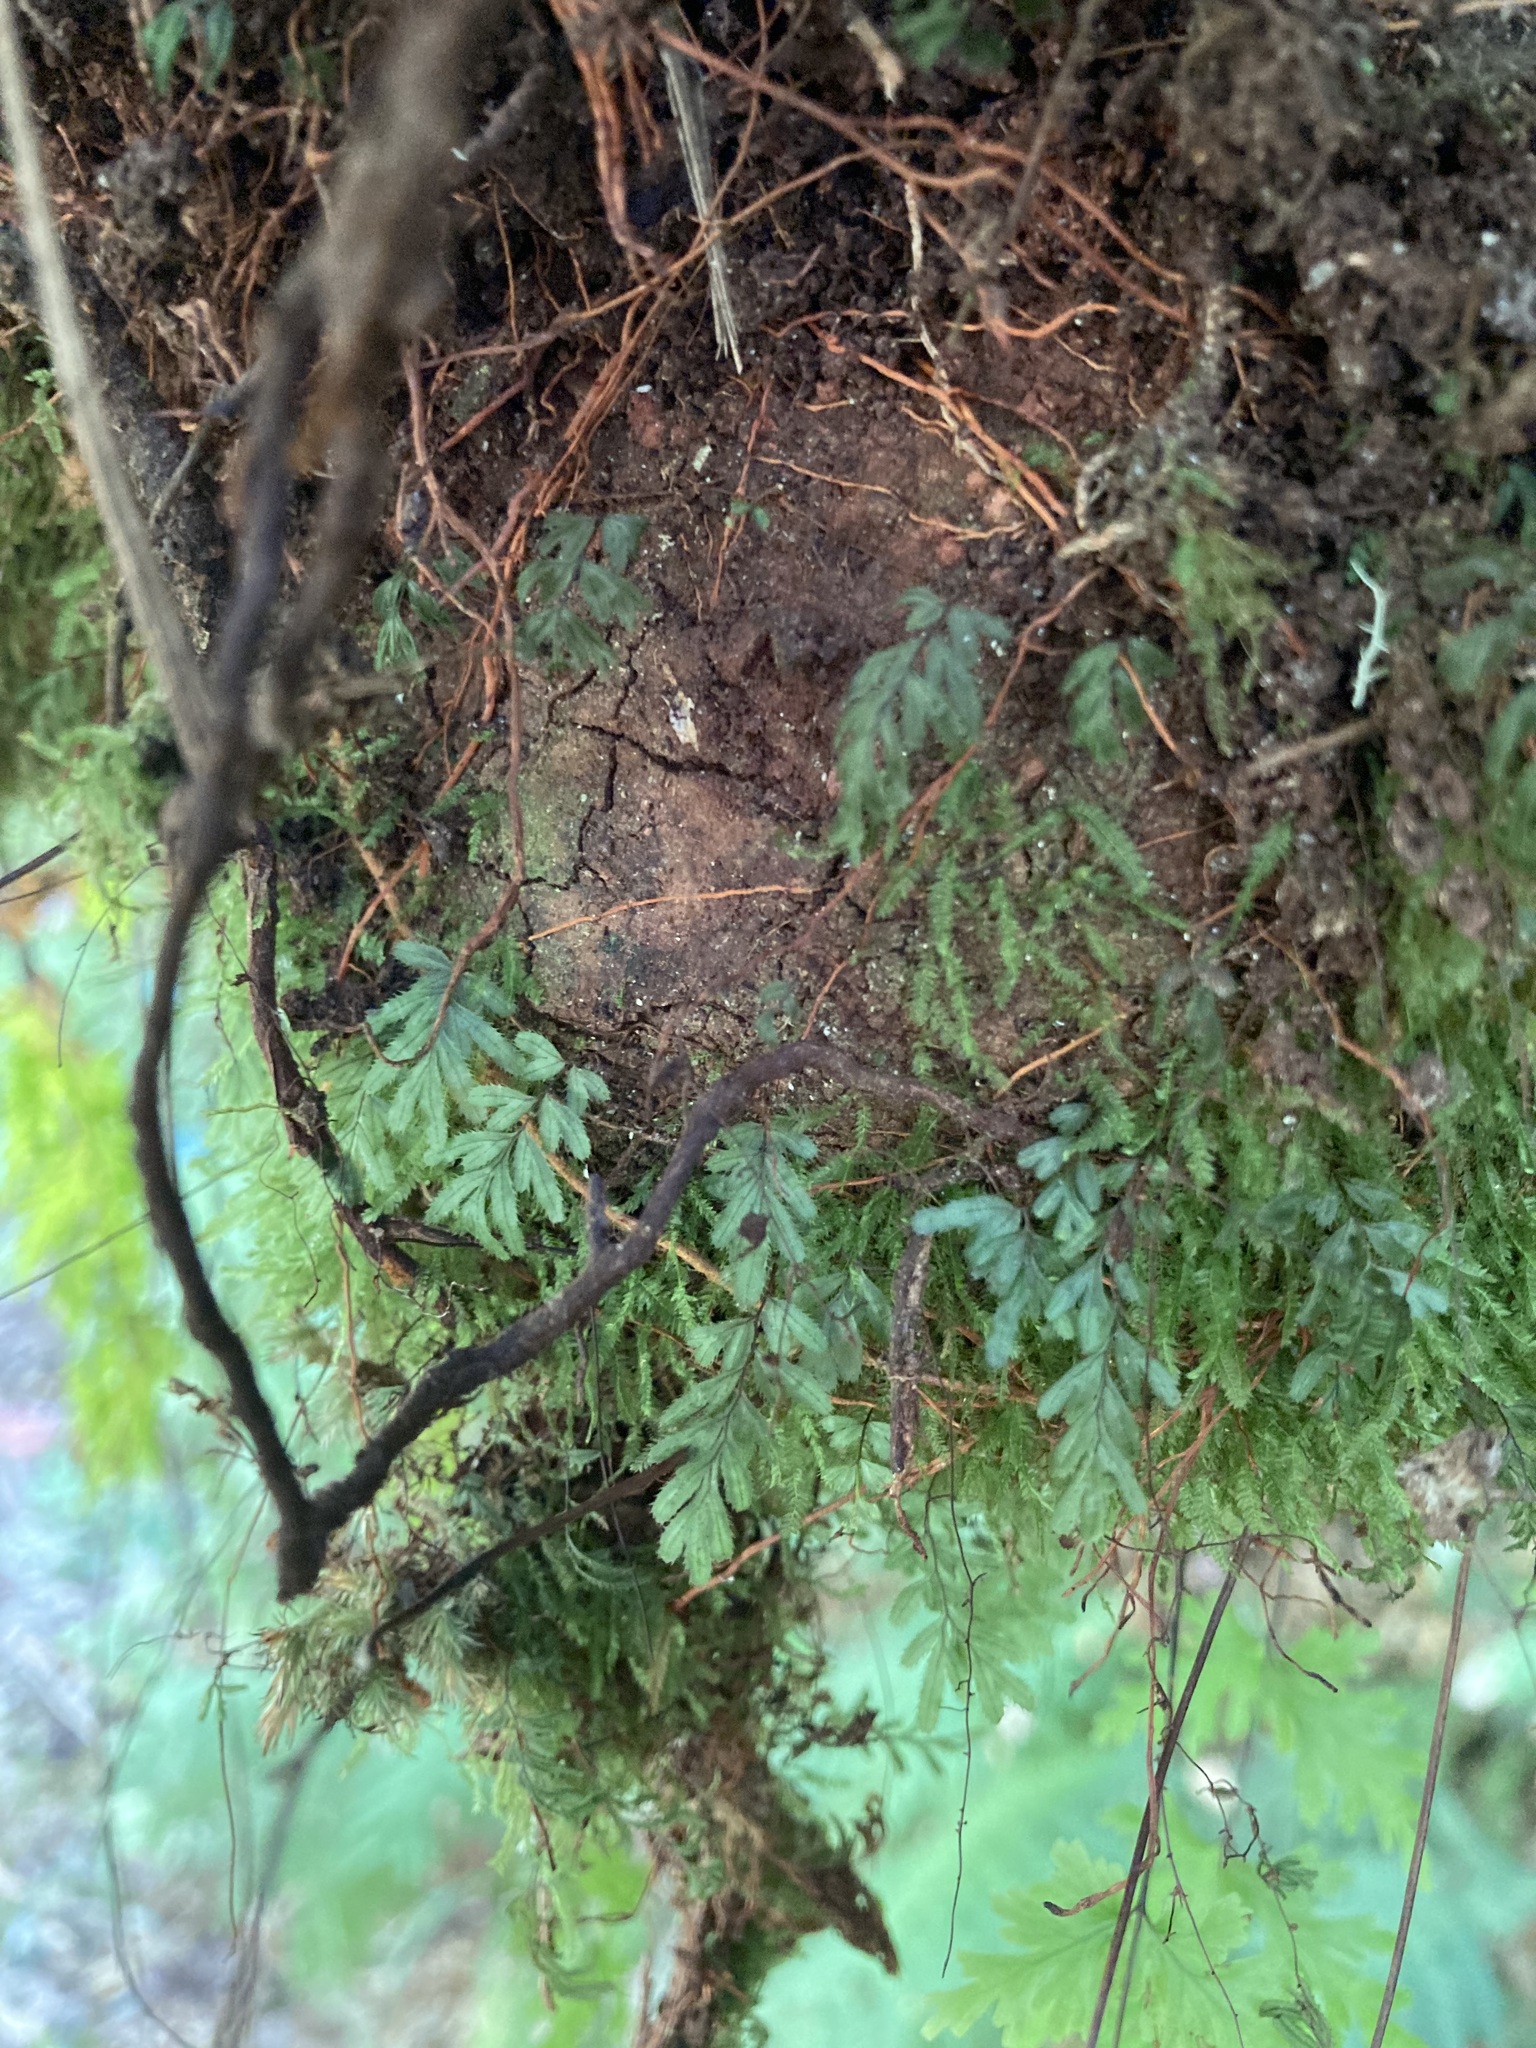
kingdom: Plantae
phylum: Tracheophyta
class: Polypodiopsida
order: Hymenophyllales
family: Hymenophyllaceae
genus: Hymenophyllum
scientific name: Hymenophyllum revolutum
